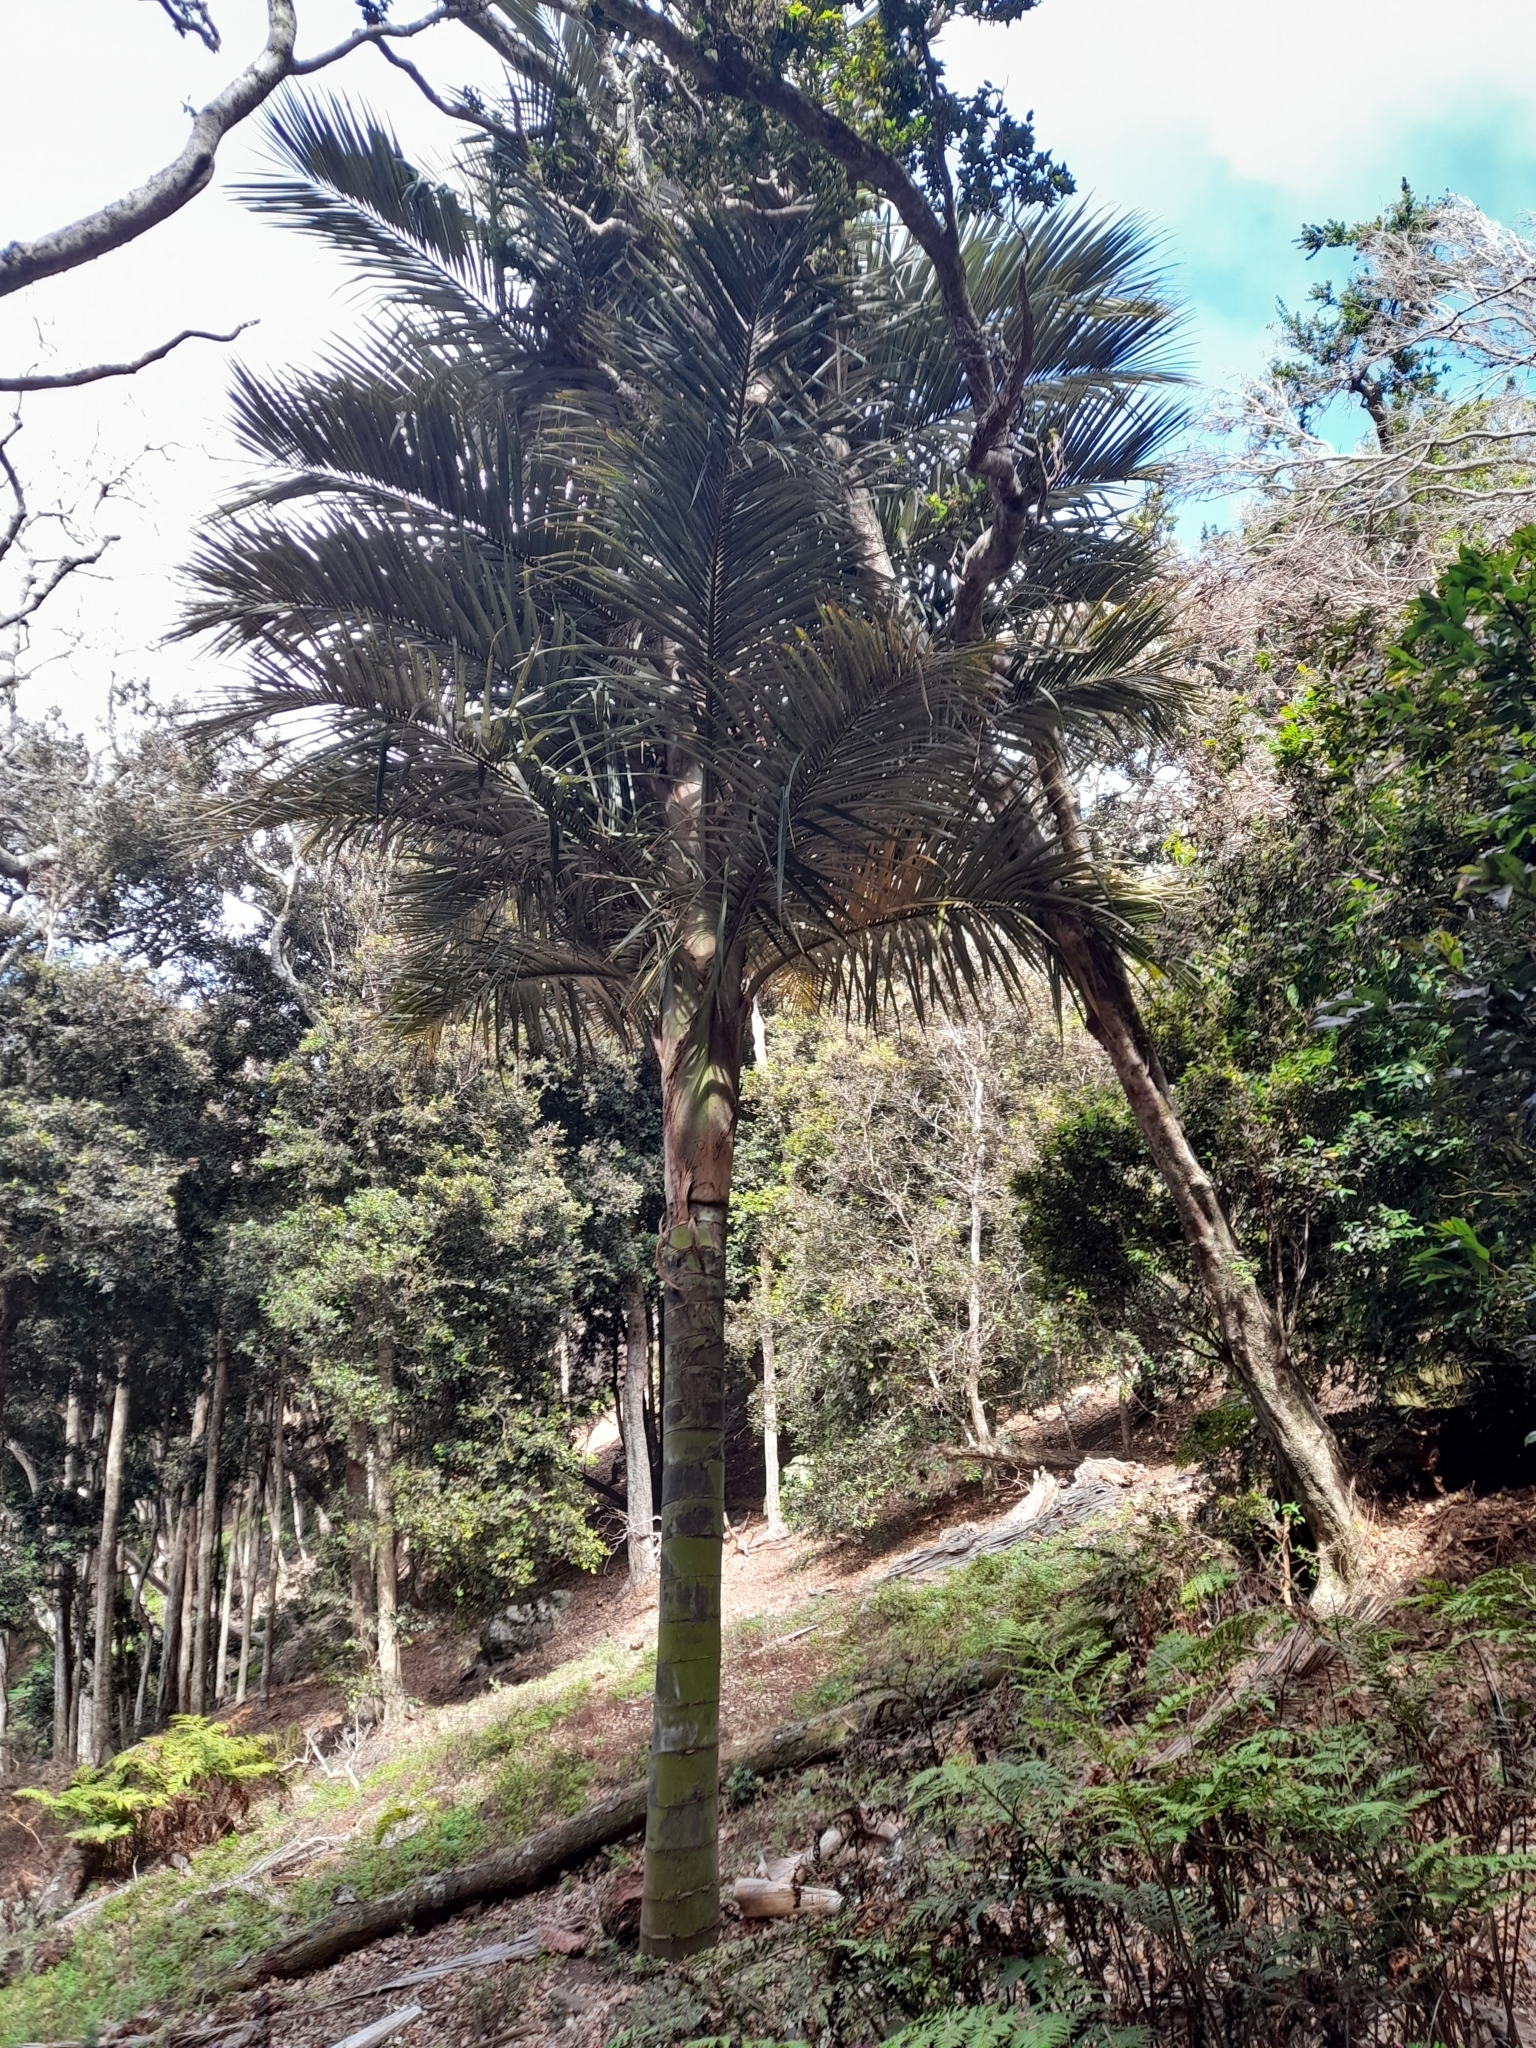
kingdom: Plantae
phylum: Tracheophyta
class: Liliopsida
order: Arecales
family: Arecaceae
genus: Juania
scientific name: Juania australis
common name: Chonta palm
